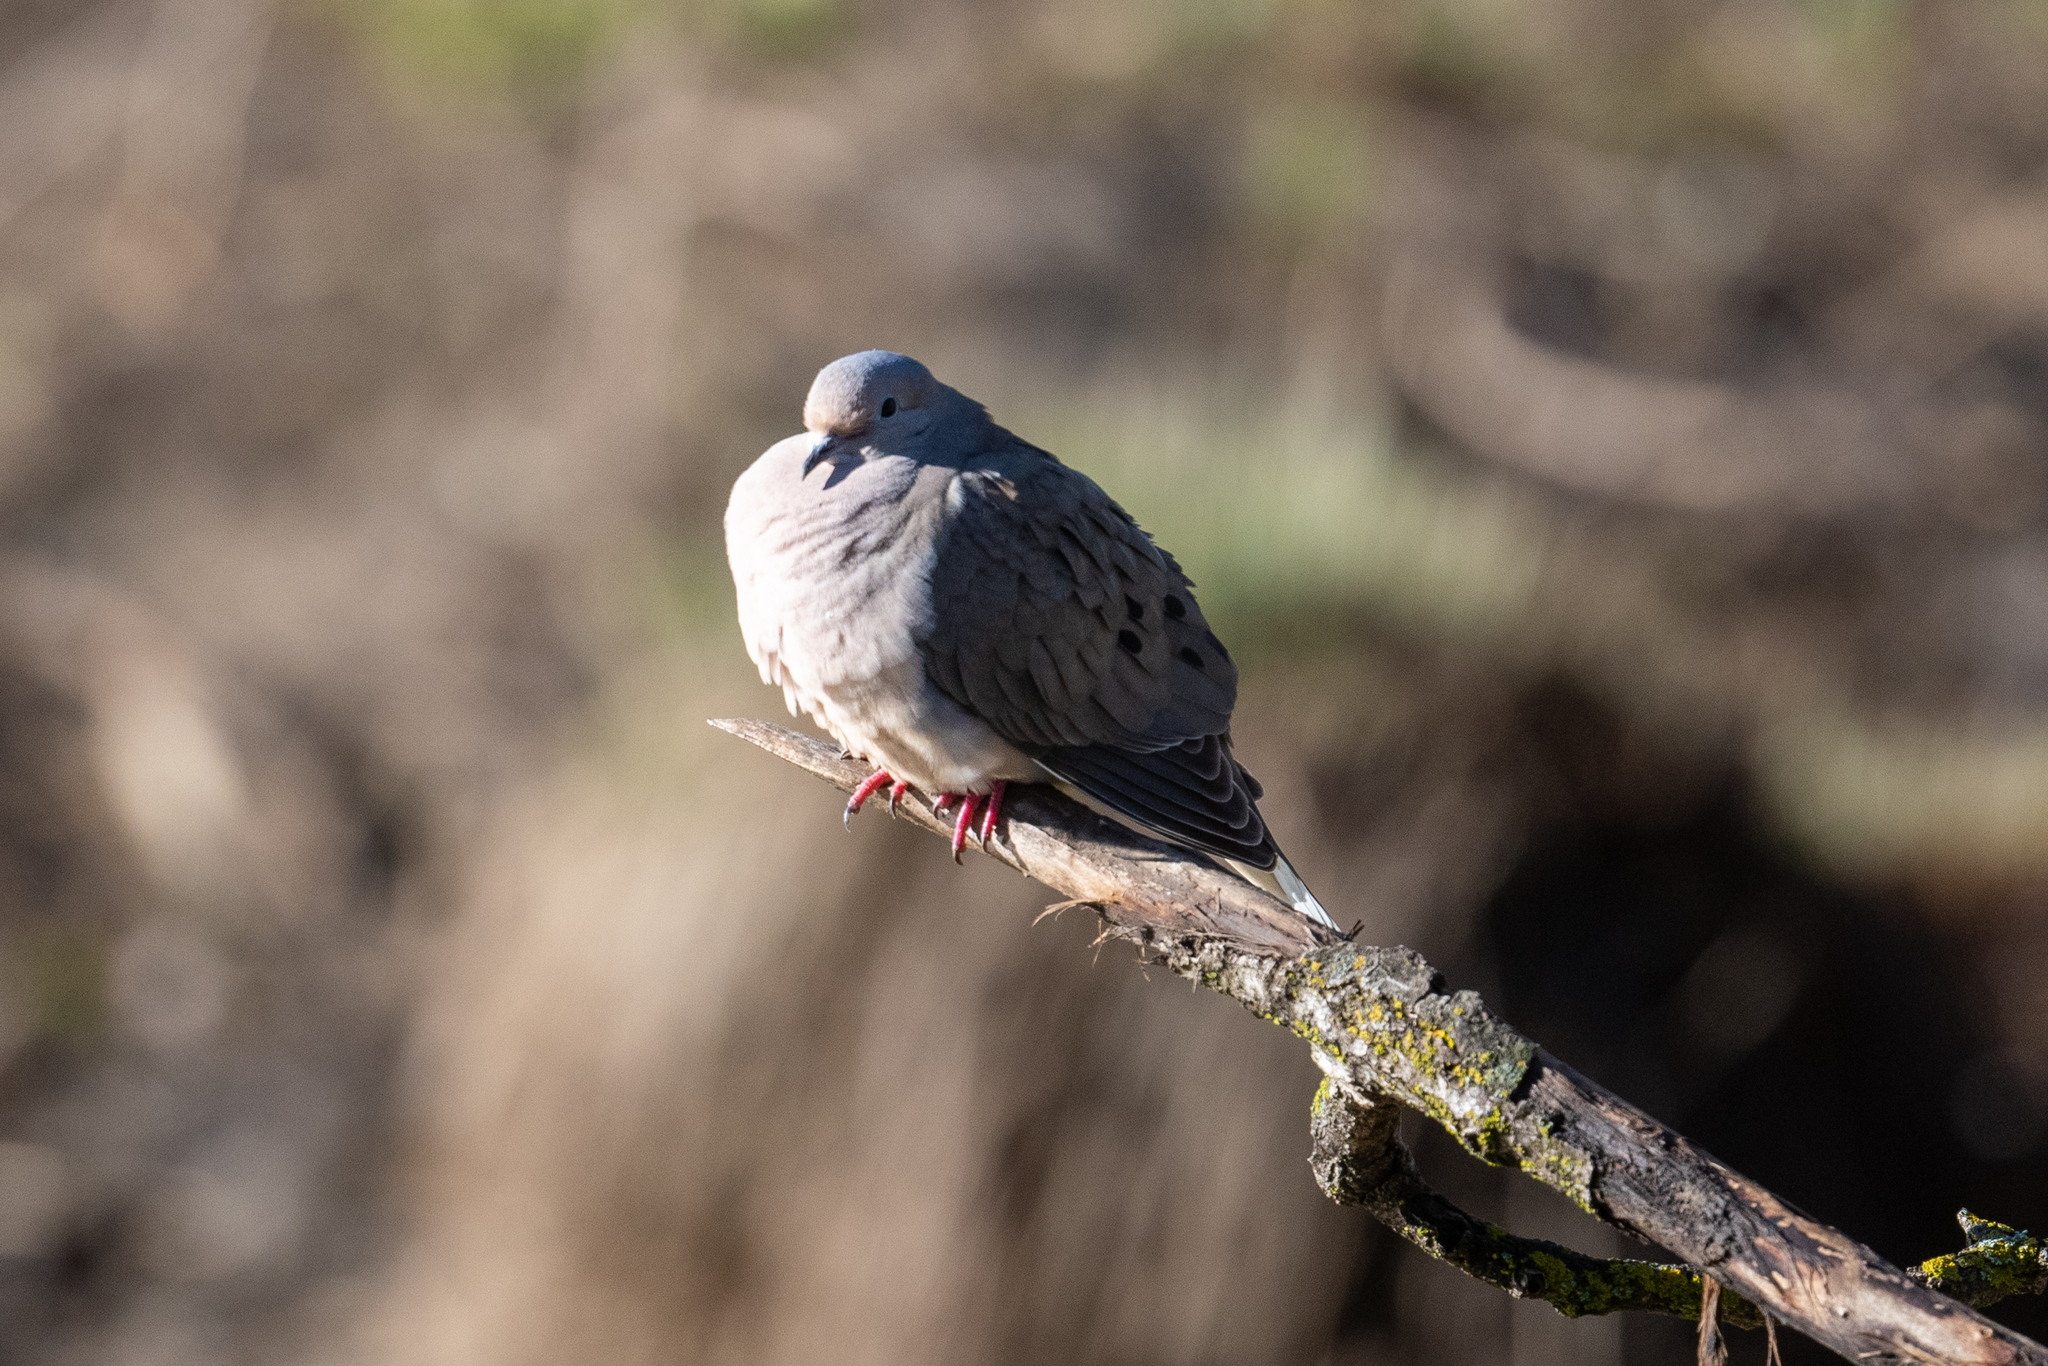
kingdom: Animalia
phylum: Chordata
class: Aves
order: Columbiformes
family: Columbidae
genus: Zenaida
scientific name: Zenaida macroura
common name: Mourning dove
